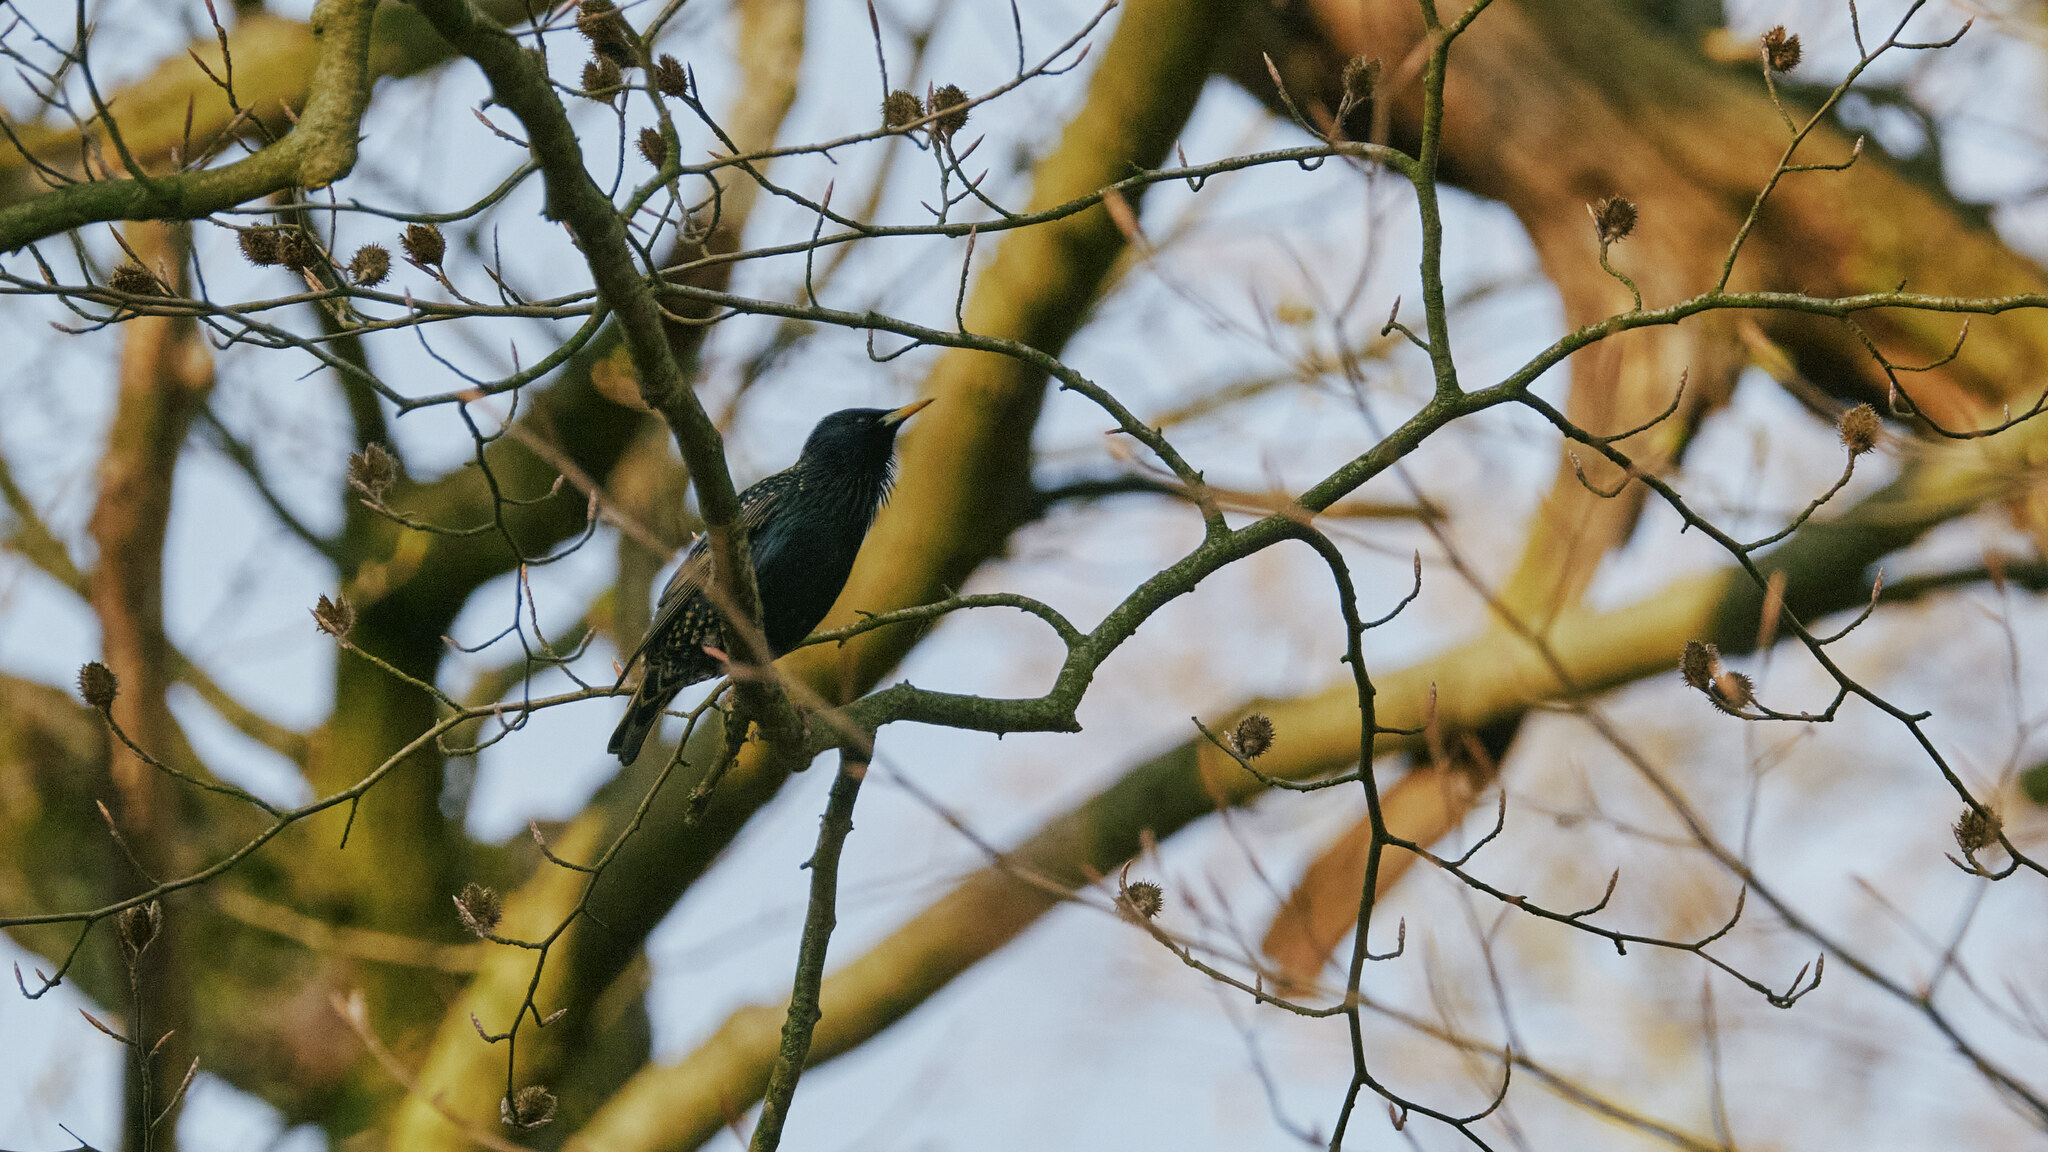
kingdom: Animalia
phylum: Chordata
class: Aves
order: Passeriformes
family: Sturnidae
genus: Sturnus
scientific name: Sturnus vulgaris
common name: Common starling
